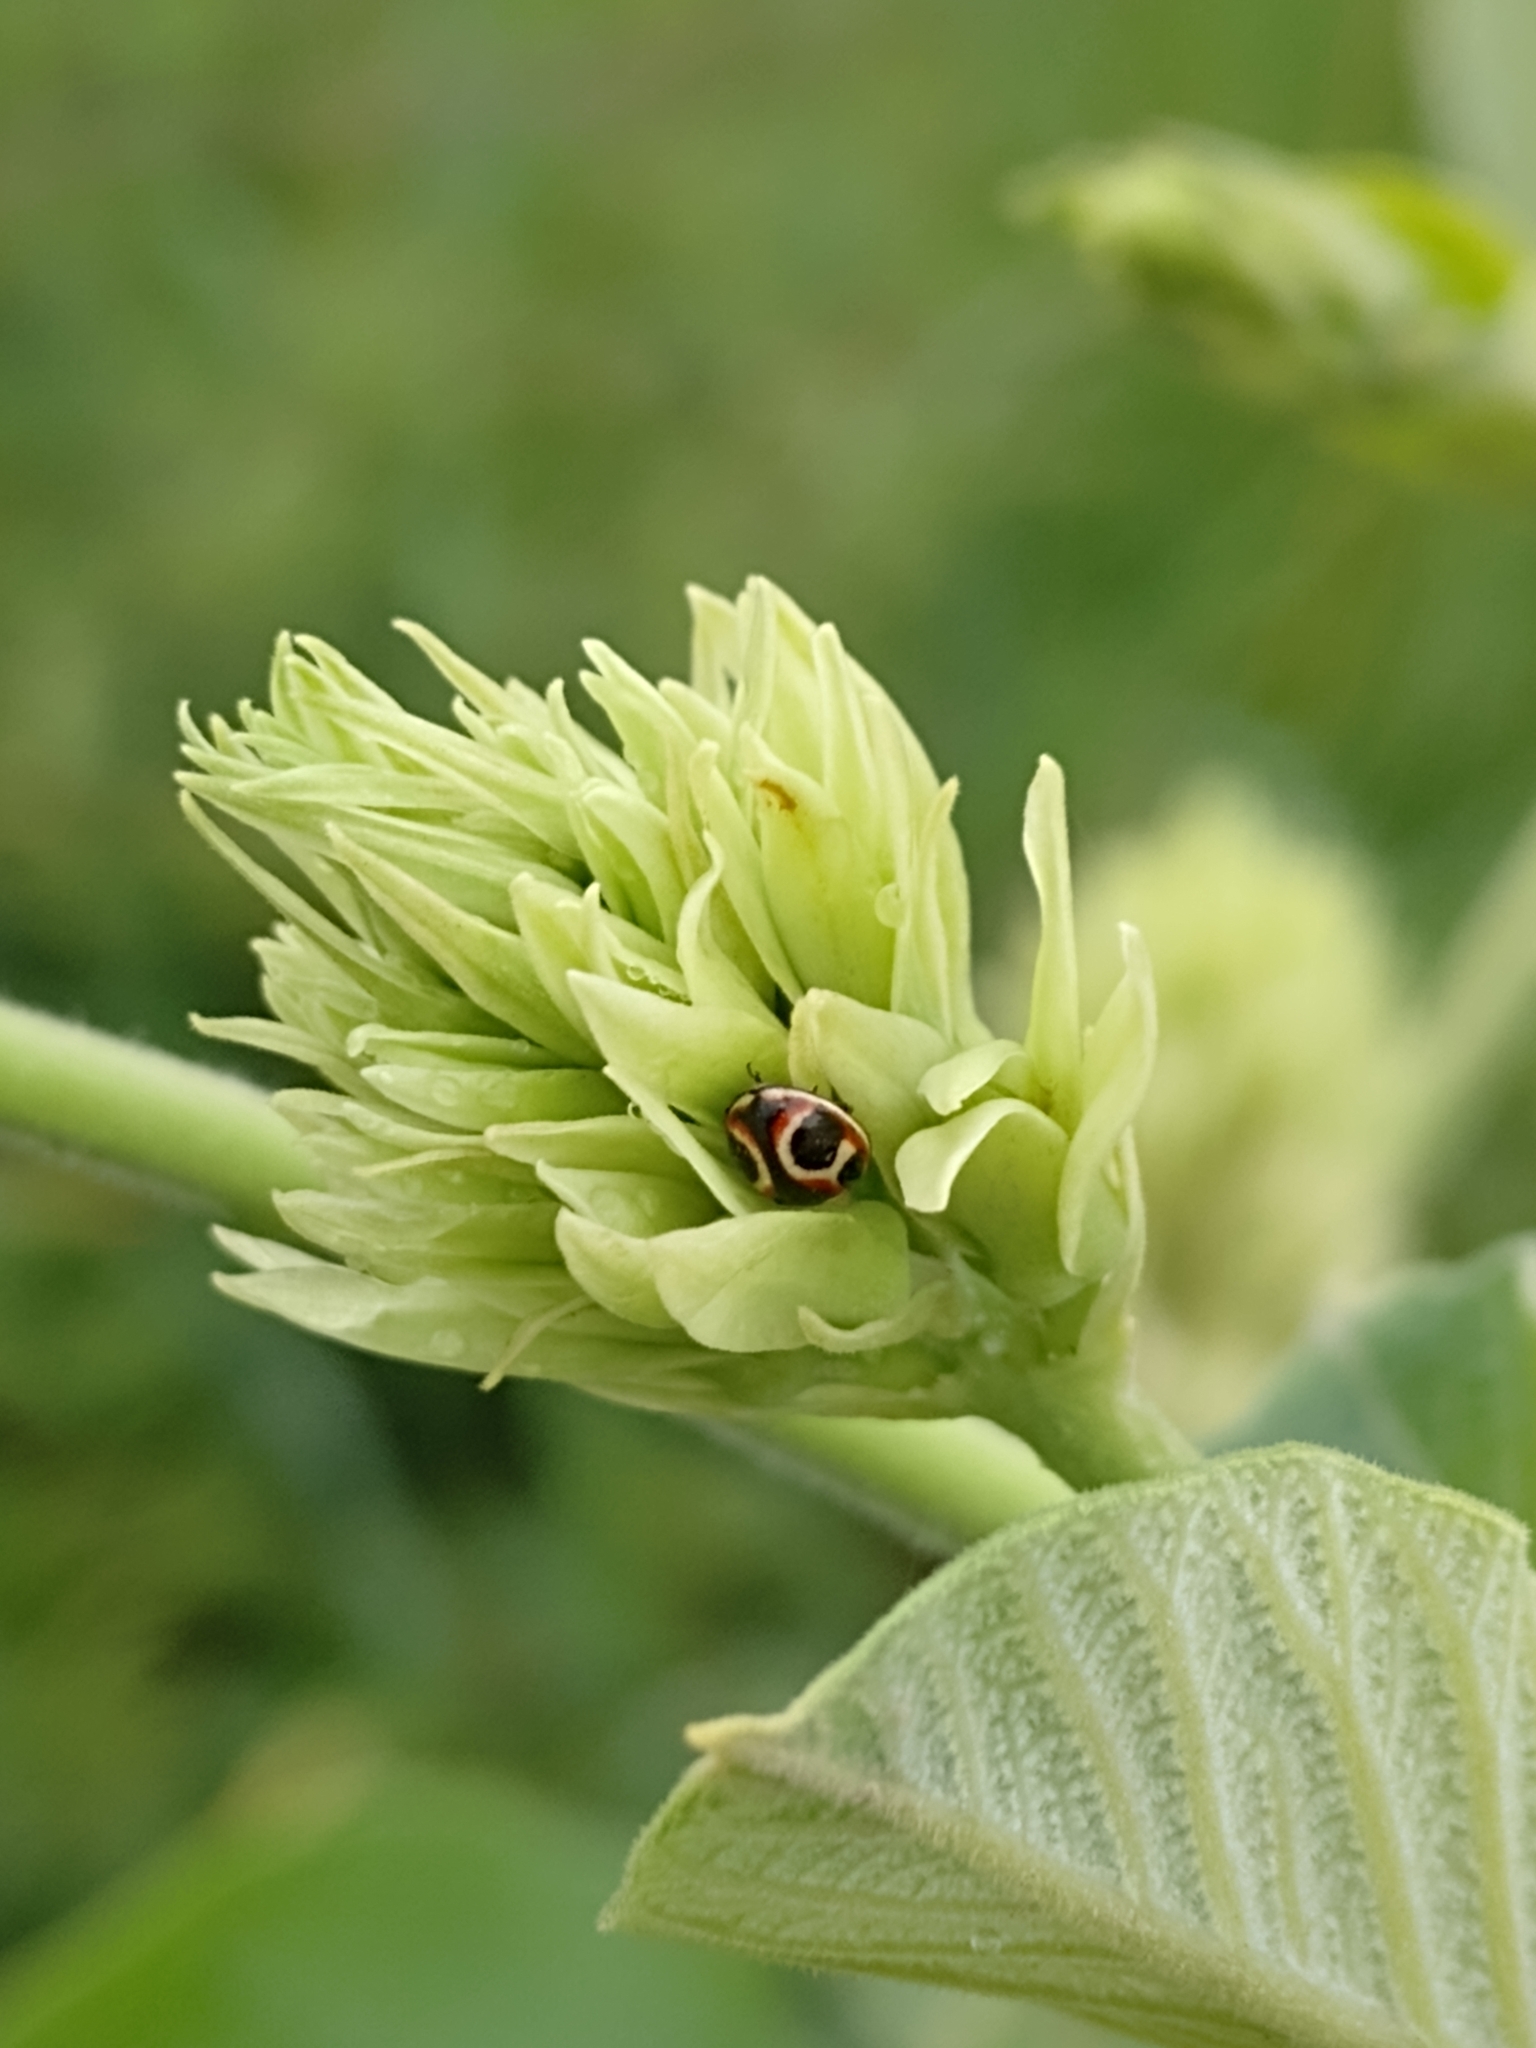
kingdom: Animalia
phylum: Arthropoda
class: Insecta
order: Coleoptera
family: Coccinellidae
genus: Cycloneda
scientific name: Cycloneda ancoralis
